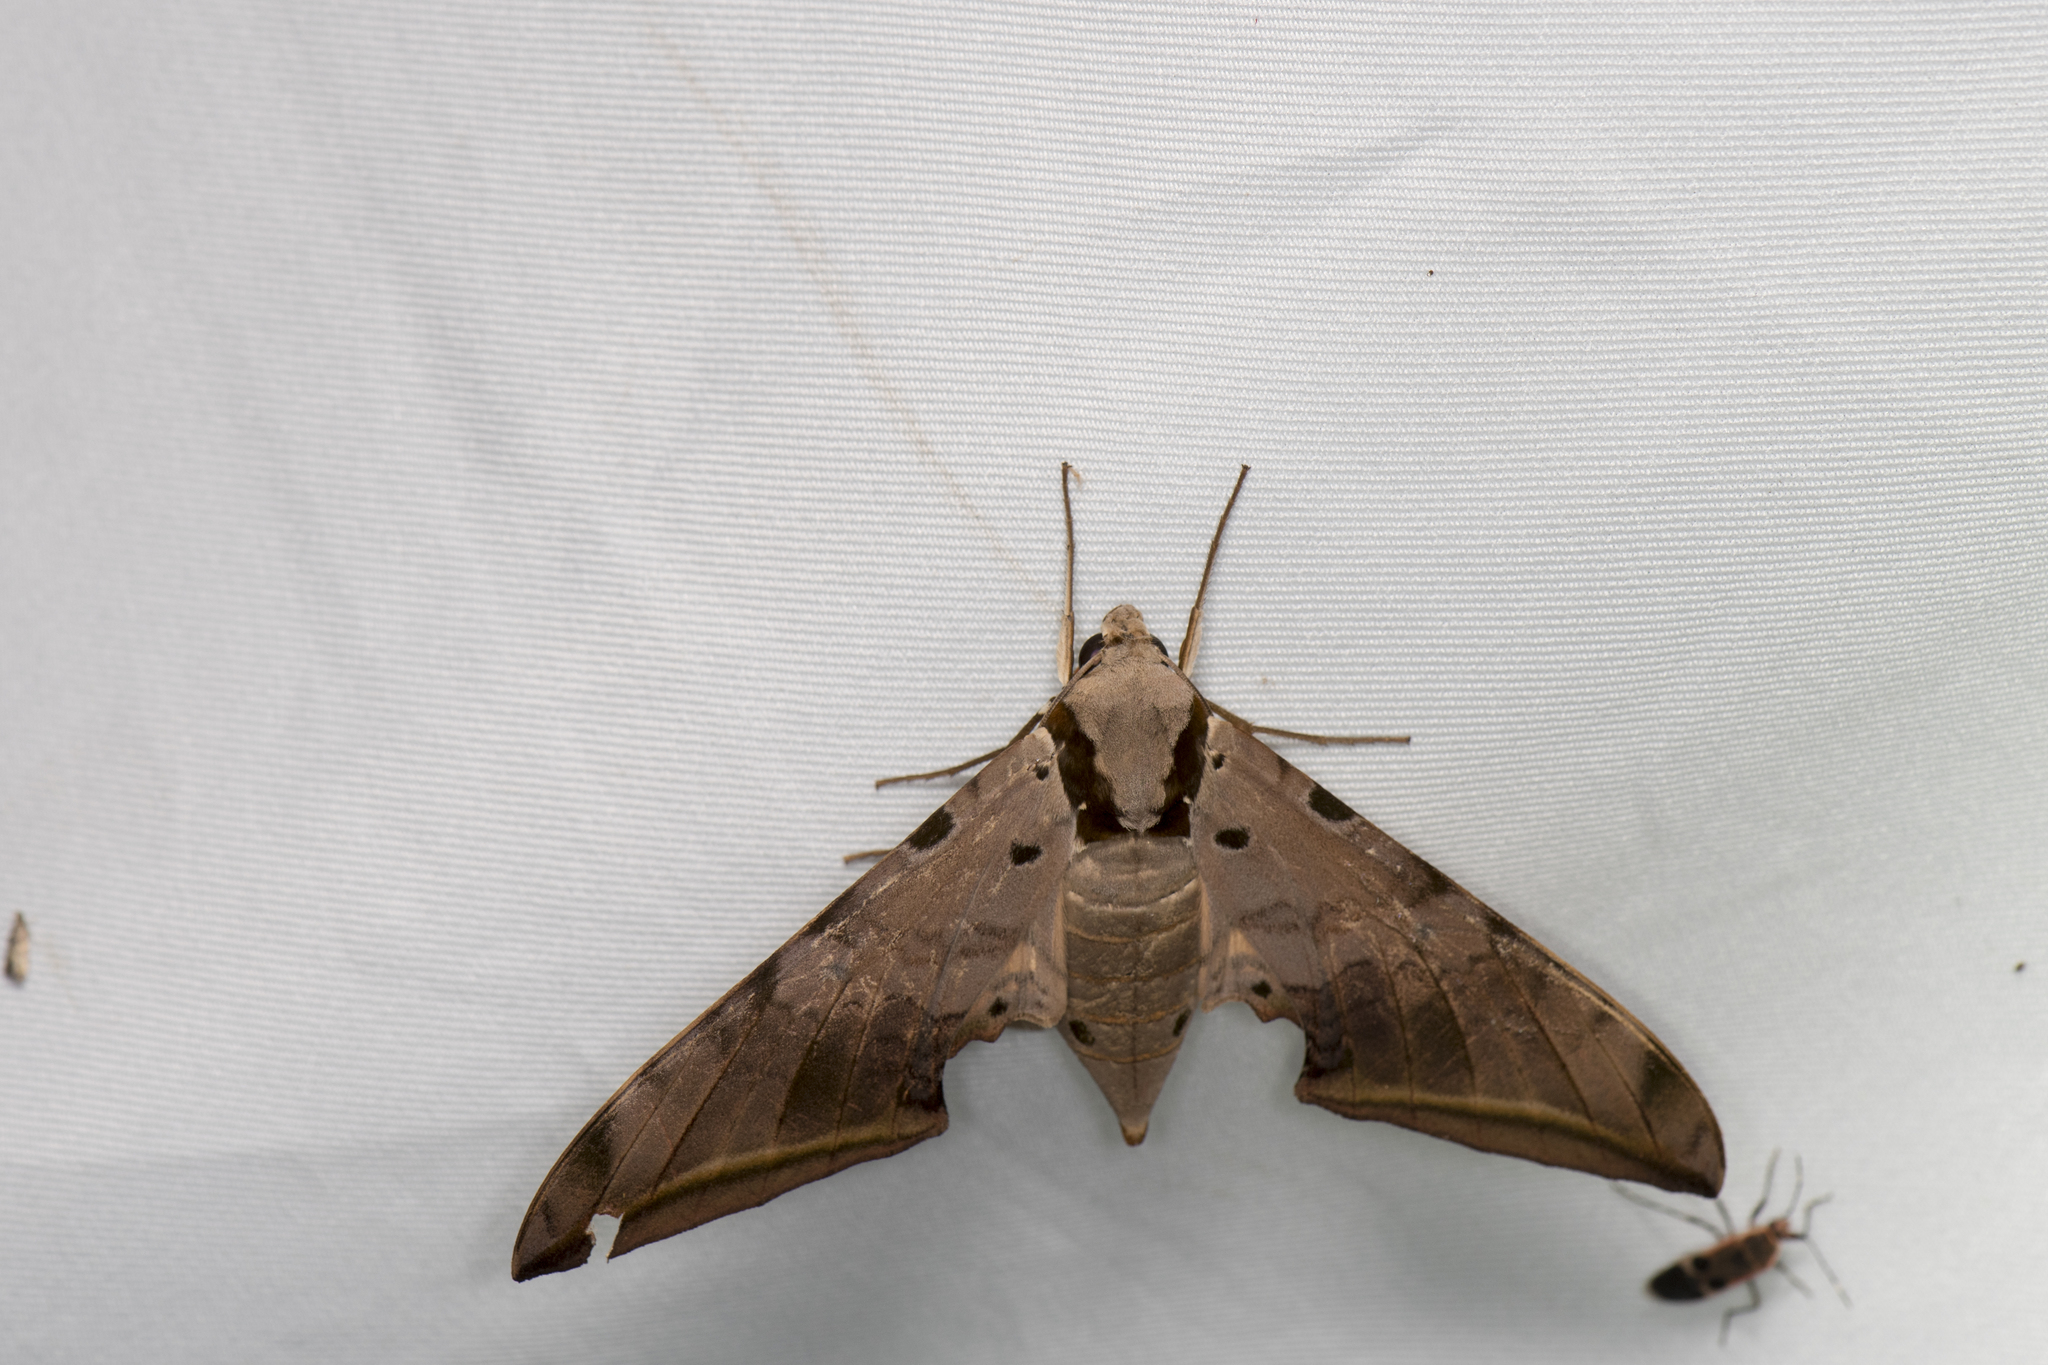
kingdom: Animalia
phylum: Arthropoda
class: Insecta
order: Lepidoptera
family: Sphingidae
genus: Ambulyx
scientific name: Ambulyx sericeipennis
